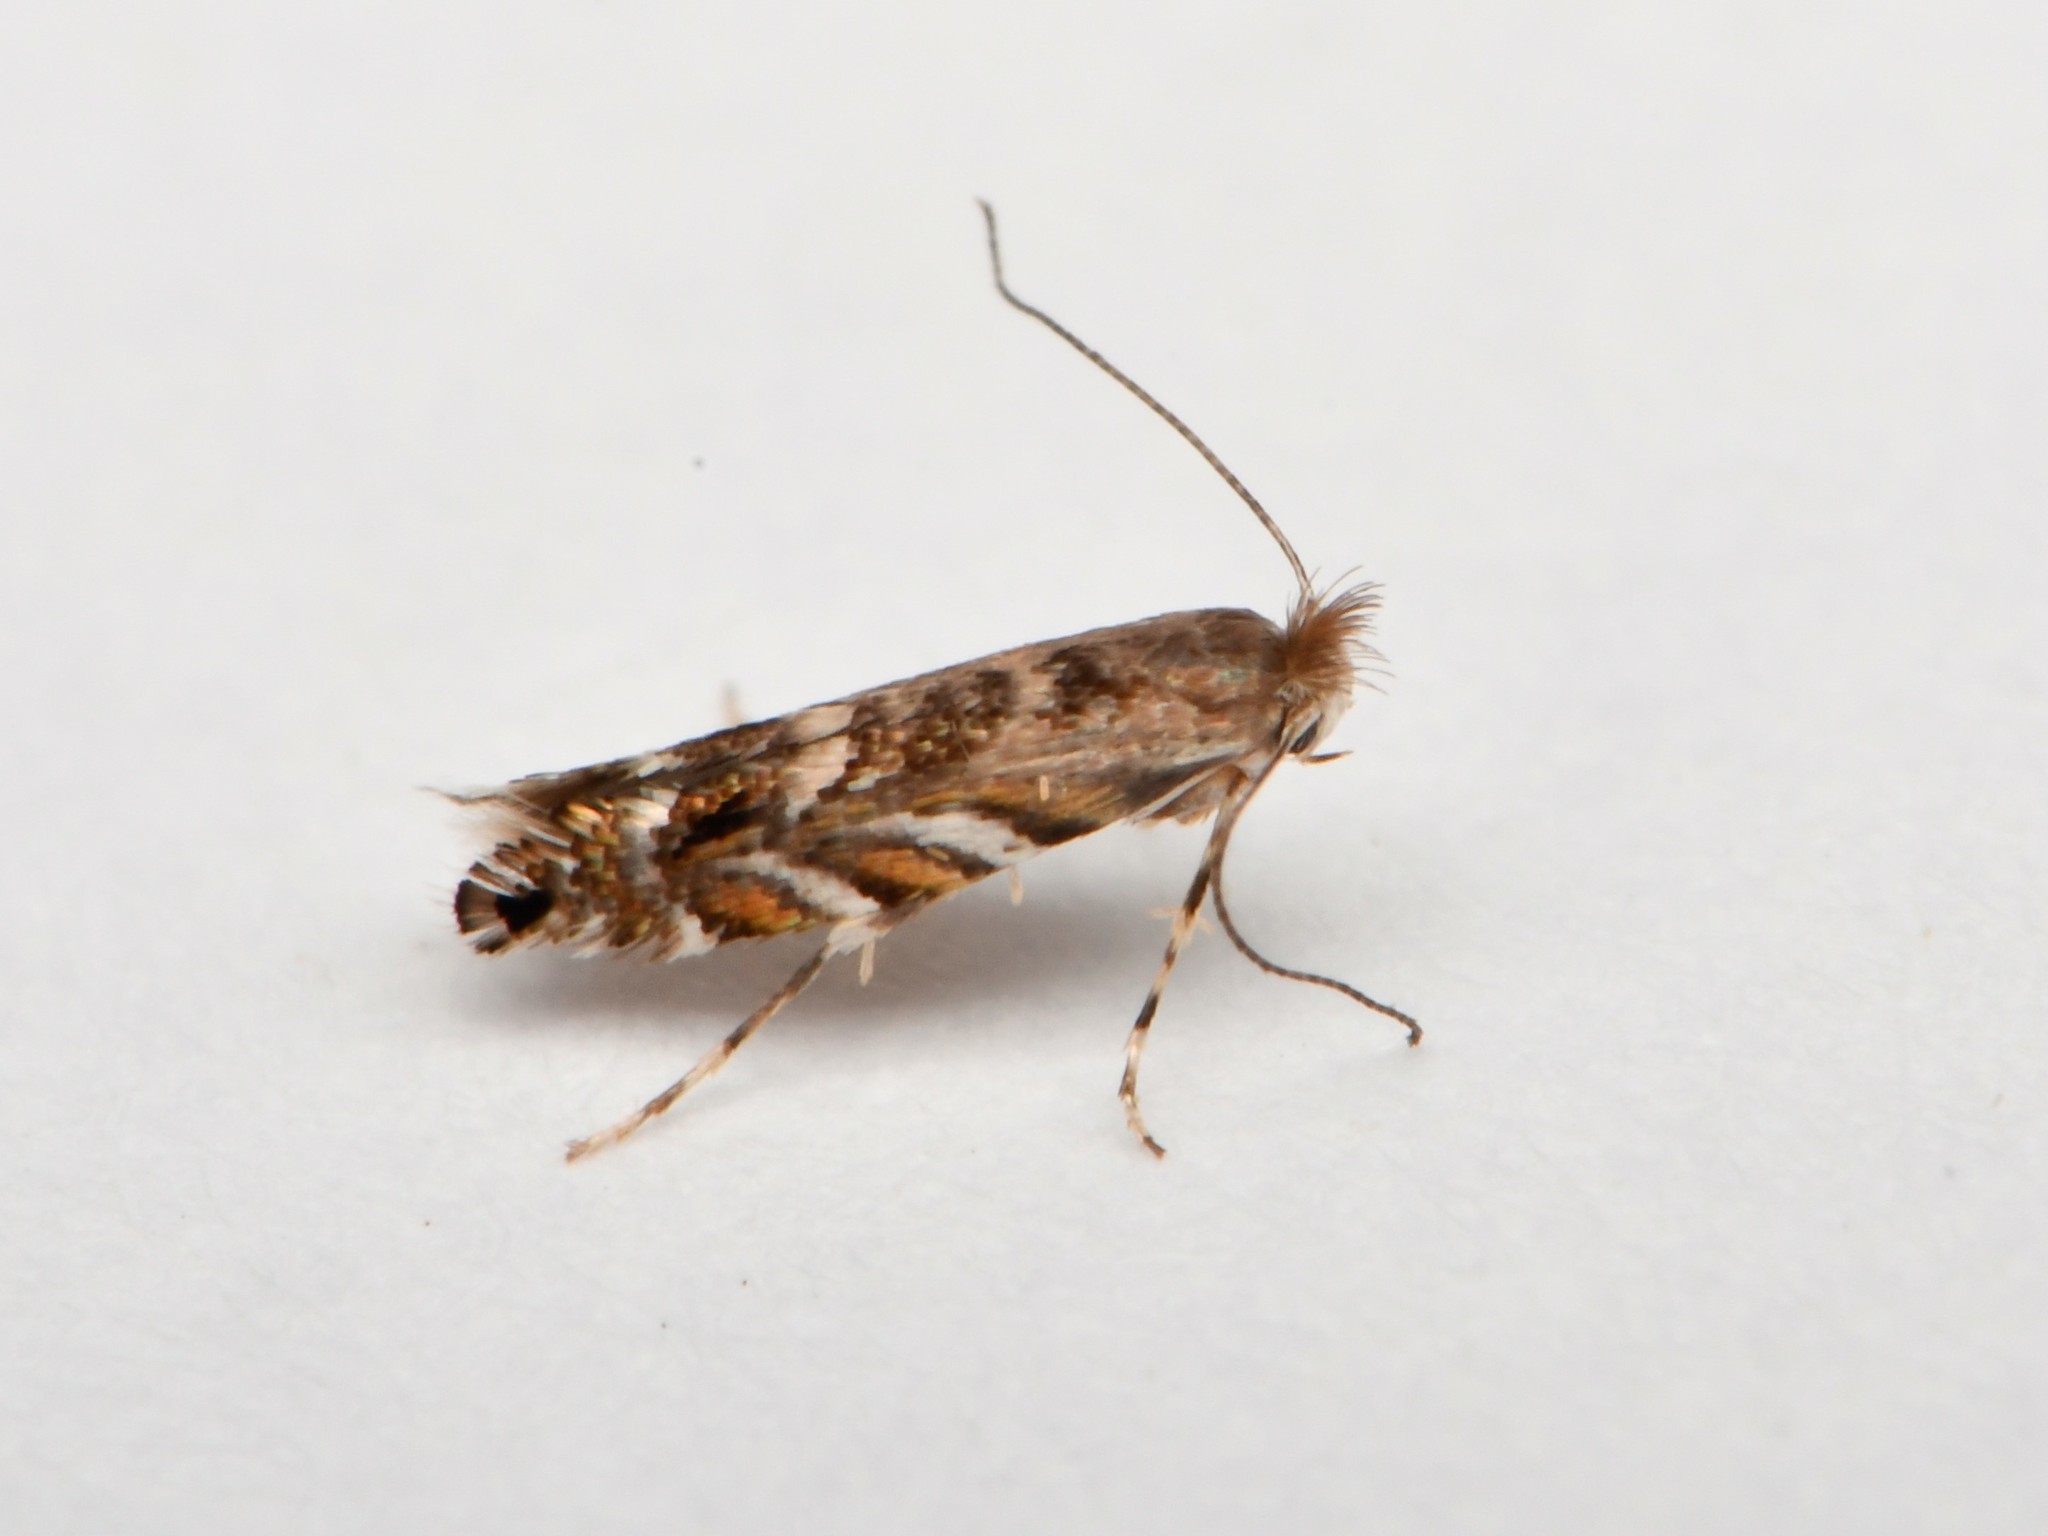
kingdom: Animalia
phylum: Arthropoda
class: Insecta
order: Lepidoptera
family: Gracillariidae
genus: Macrosaccus
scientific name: Macrosaccus robiniella
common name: Leaf blotch miner moth
